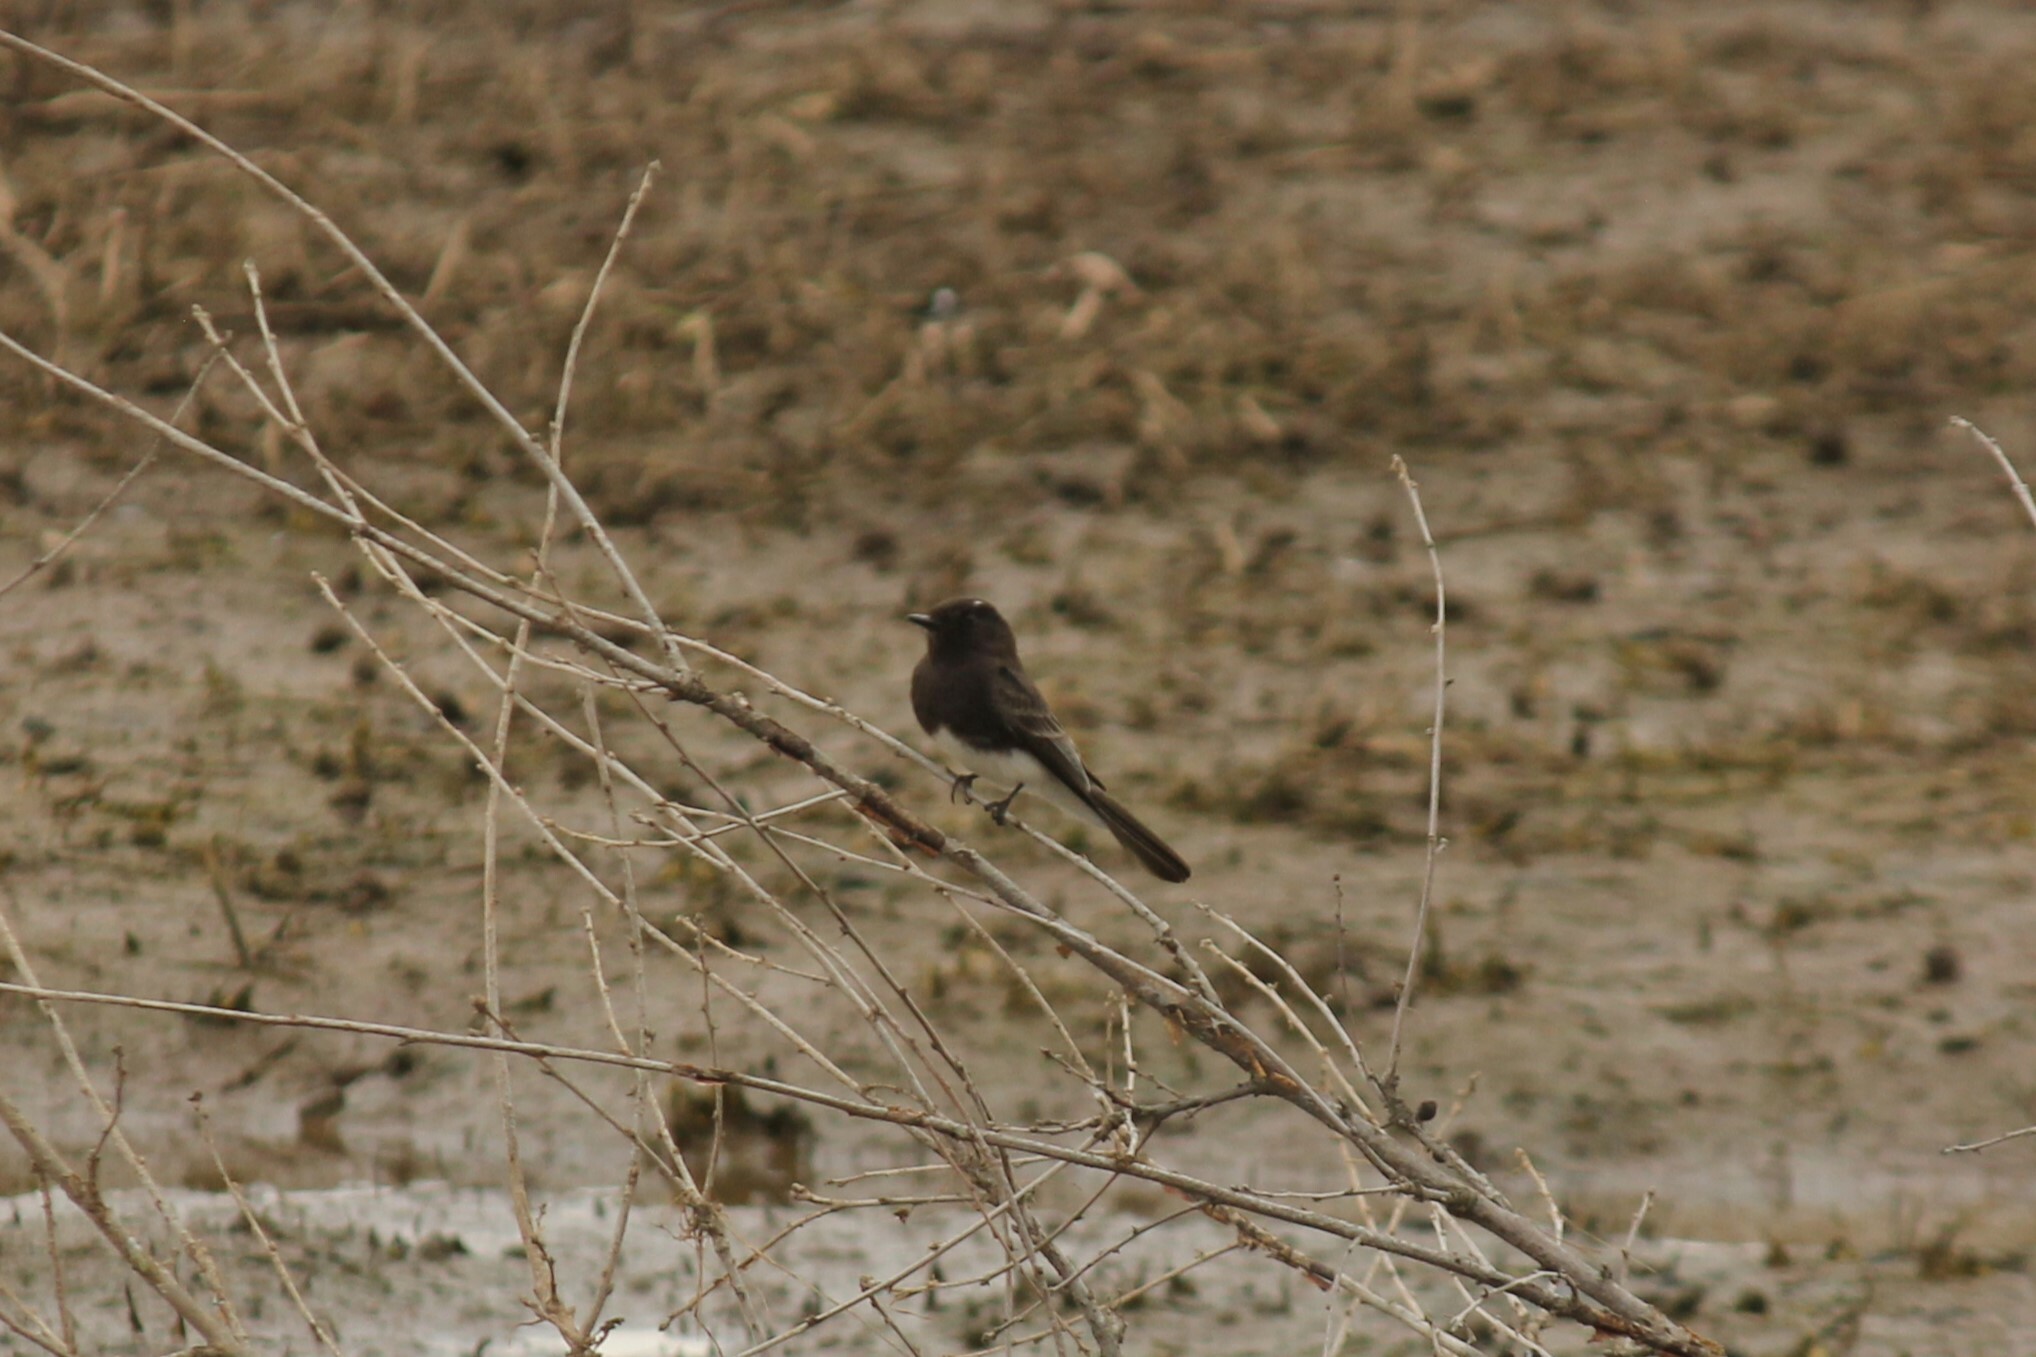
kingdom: Animalia
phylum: Chordata
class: Aves
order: Passeriformes
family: Tyrannidae
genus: Sayornis
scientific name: Sayornis nigricans
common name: Black phoebe
